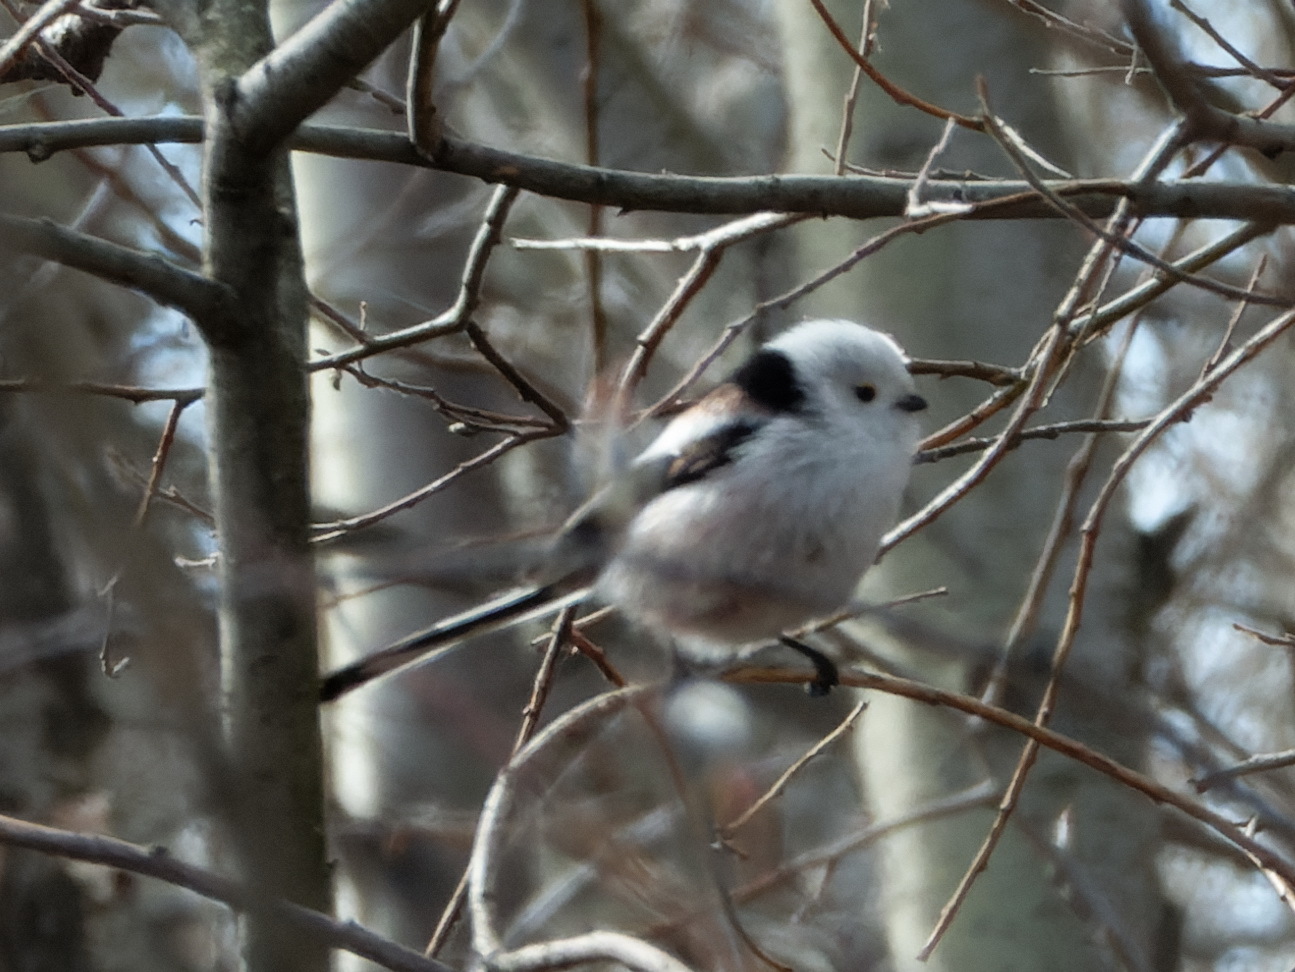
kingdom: Animalia
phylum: Chordata
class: Aves
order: Passeriformes
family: Aegithalidae
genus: Aegithalos
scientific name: Aegithalos caudatus
